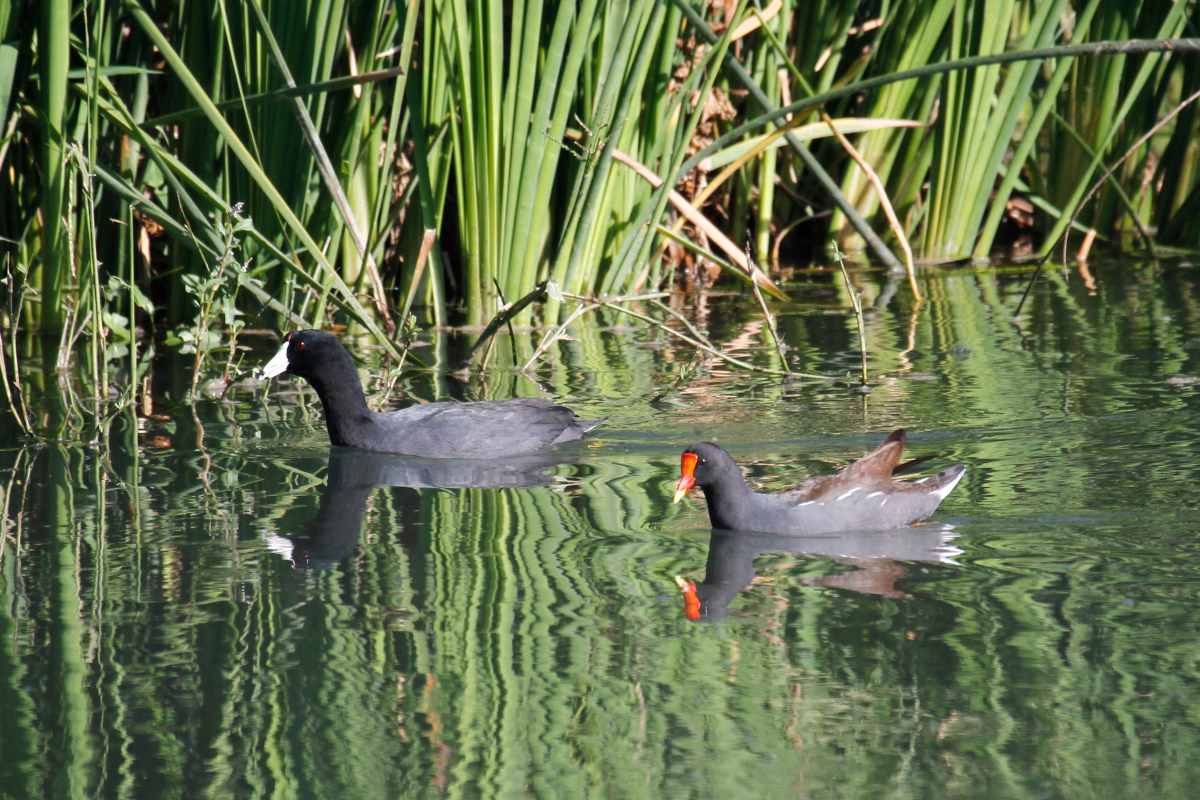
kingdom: Animalia
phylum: Chordata
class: Aves
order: Gruiformes
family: Rallidae
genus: Fulica
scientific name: Fulica americana
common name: American coot
